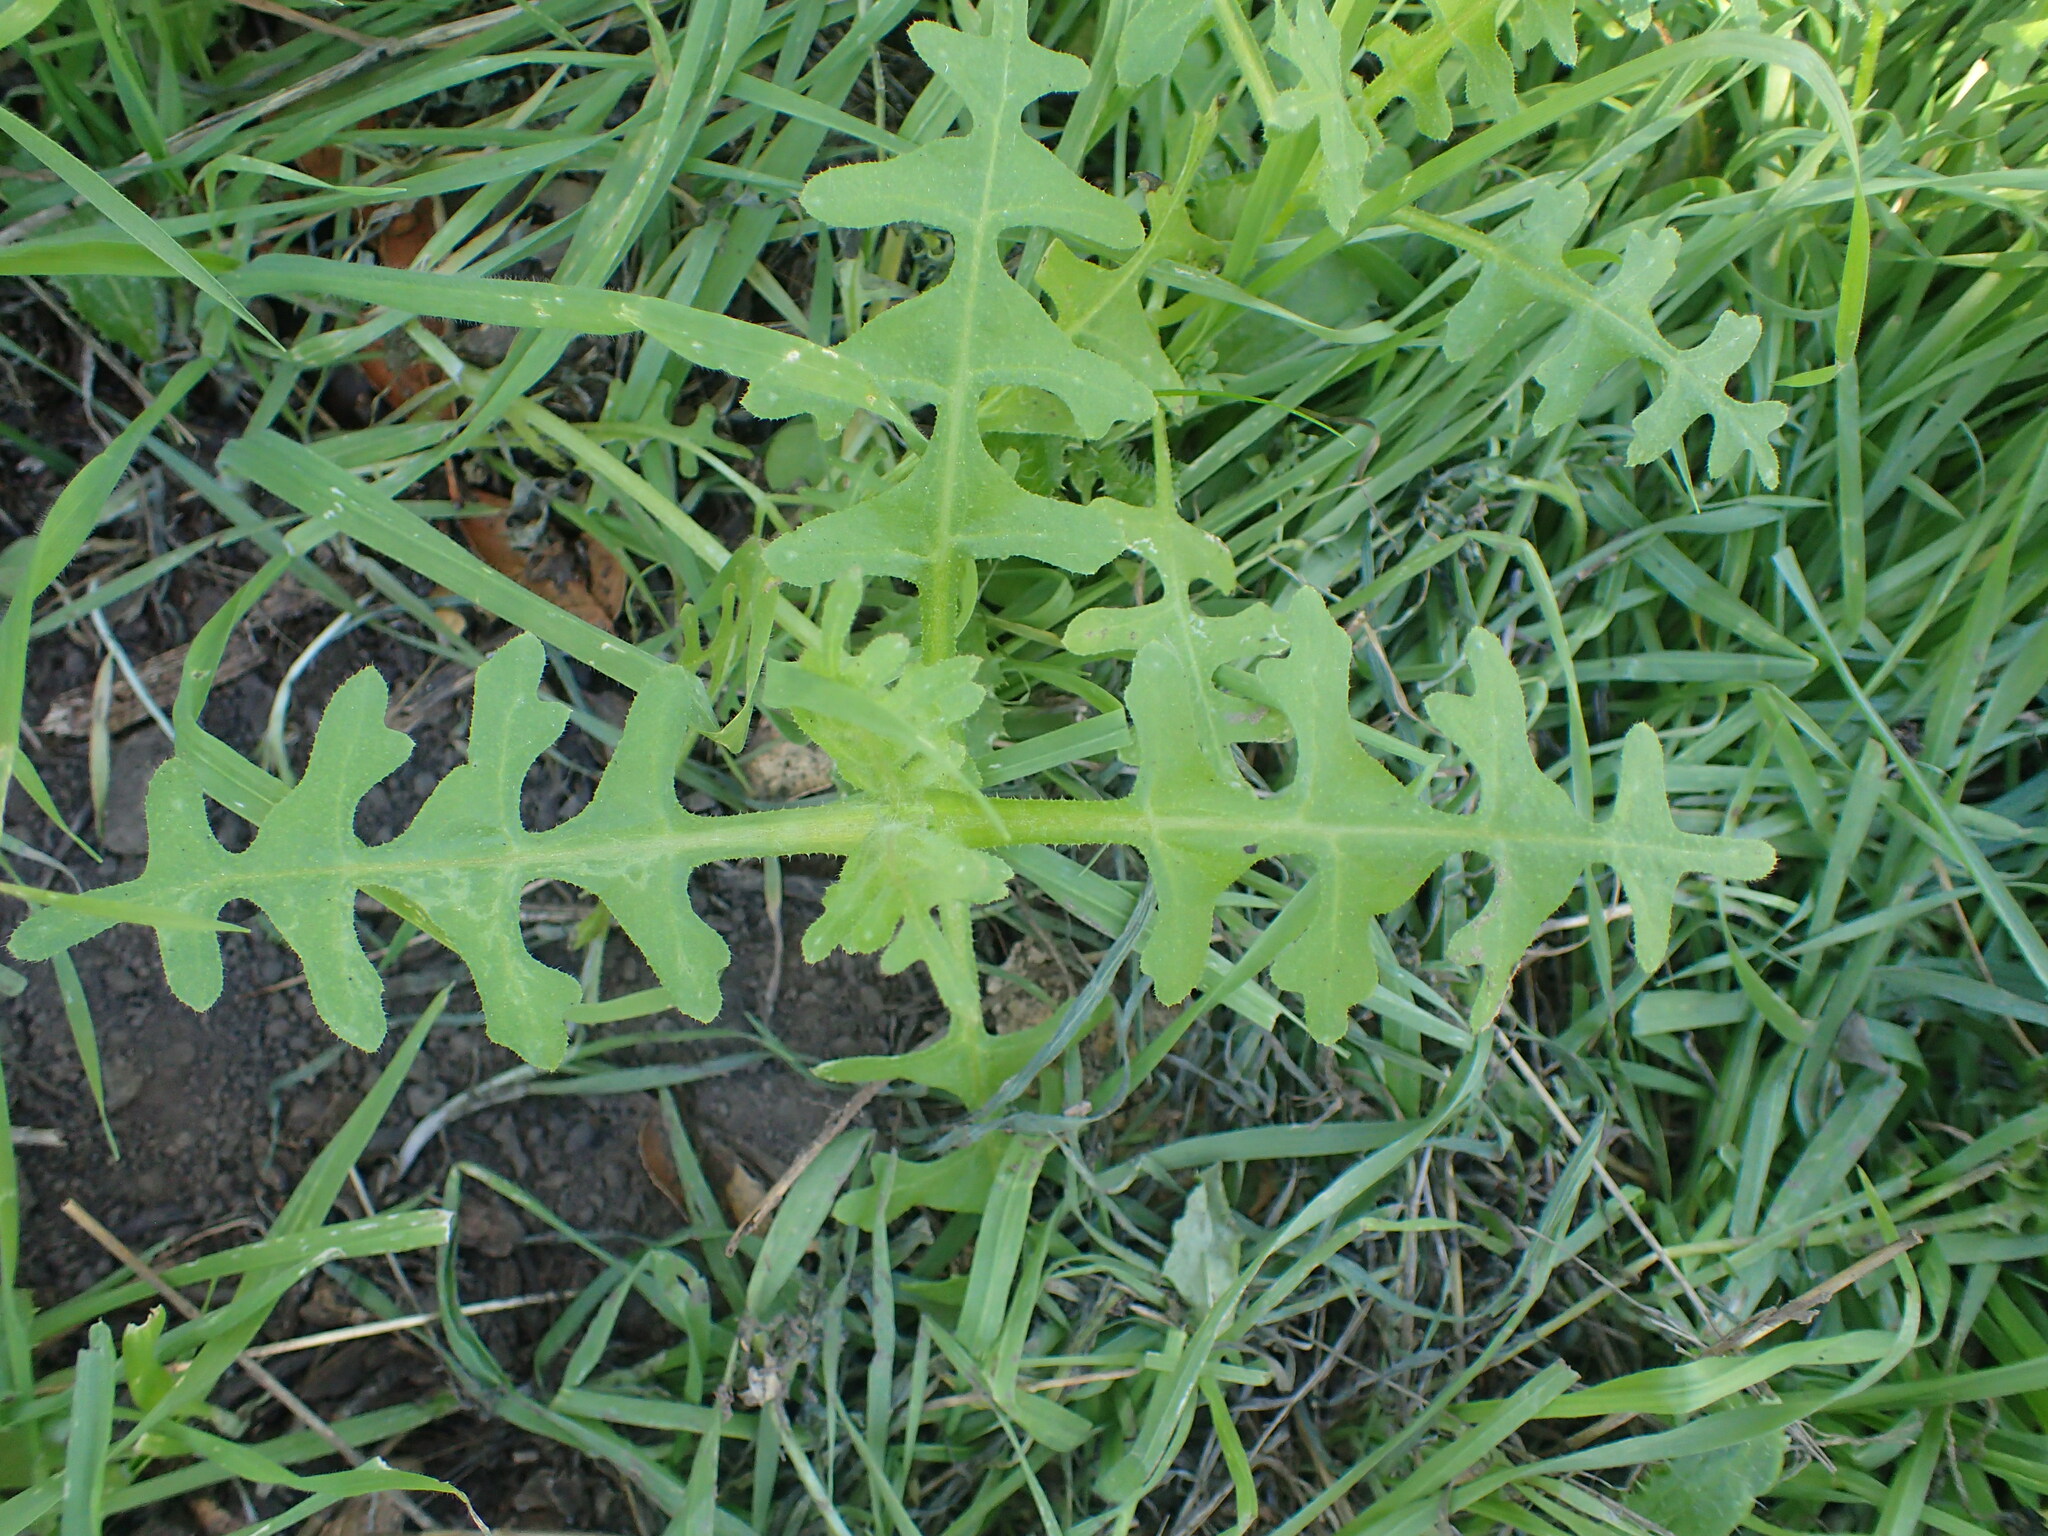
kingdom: Plantae
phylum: Tracheophyta
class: Magnoliopsida
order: Boraginales
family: Hydrophyllaceae
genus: Pholistoma
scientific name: Pholistoma auritum
